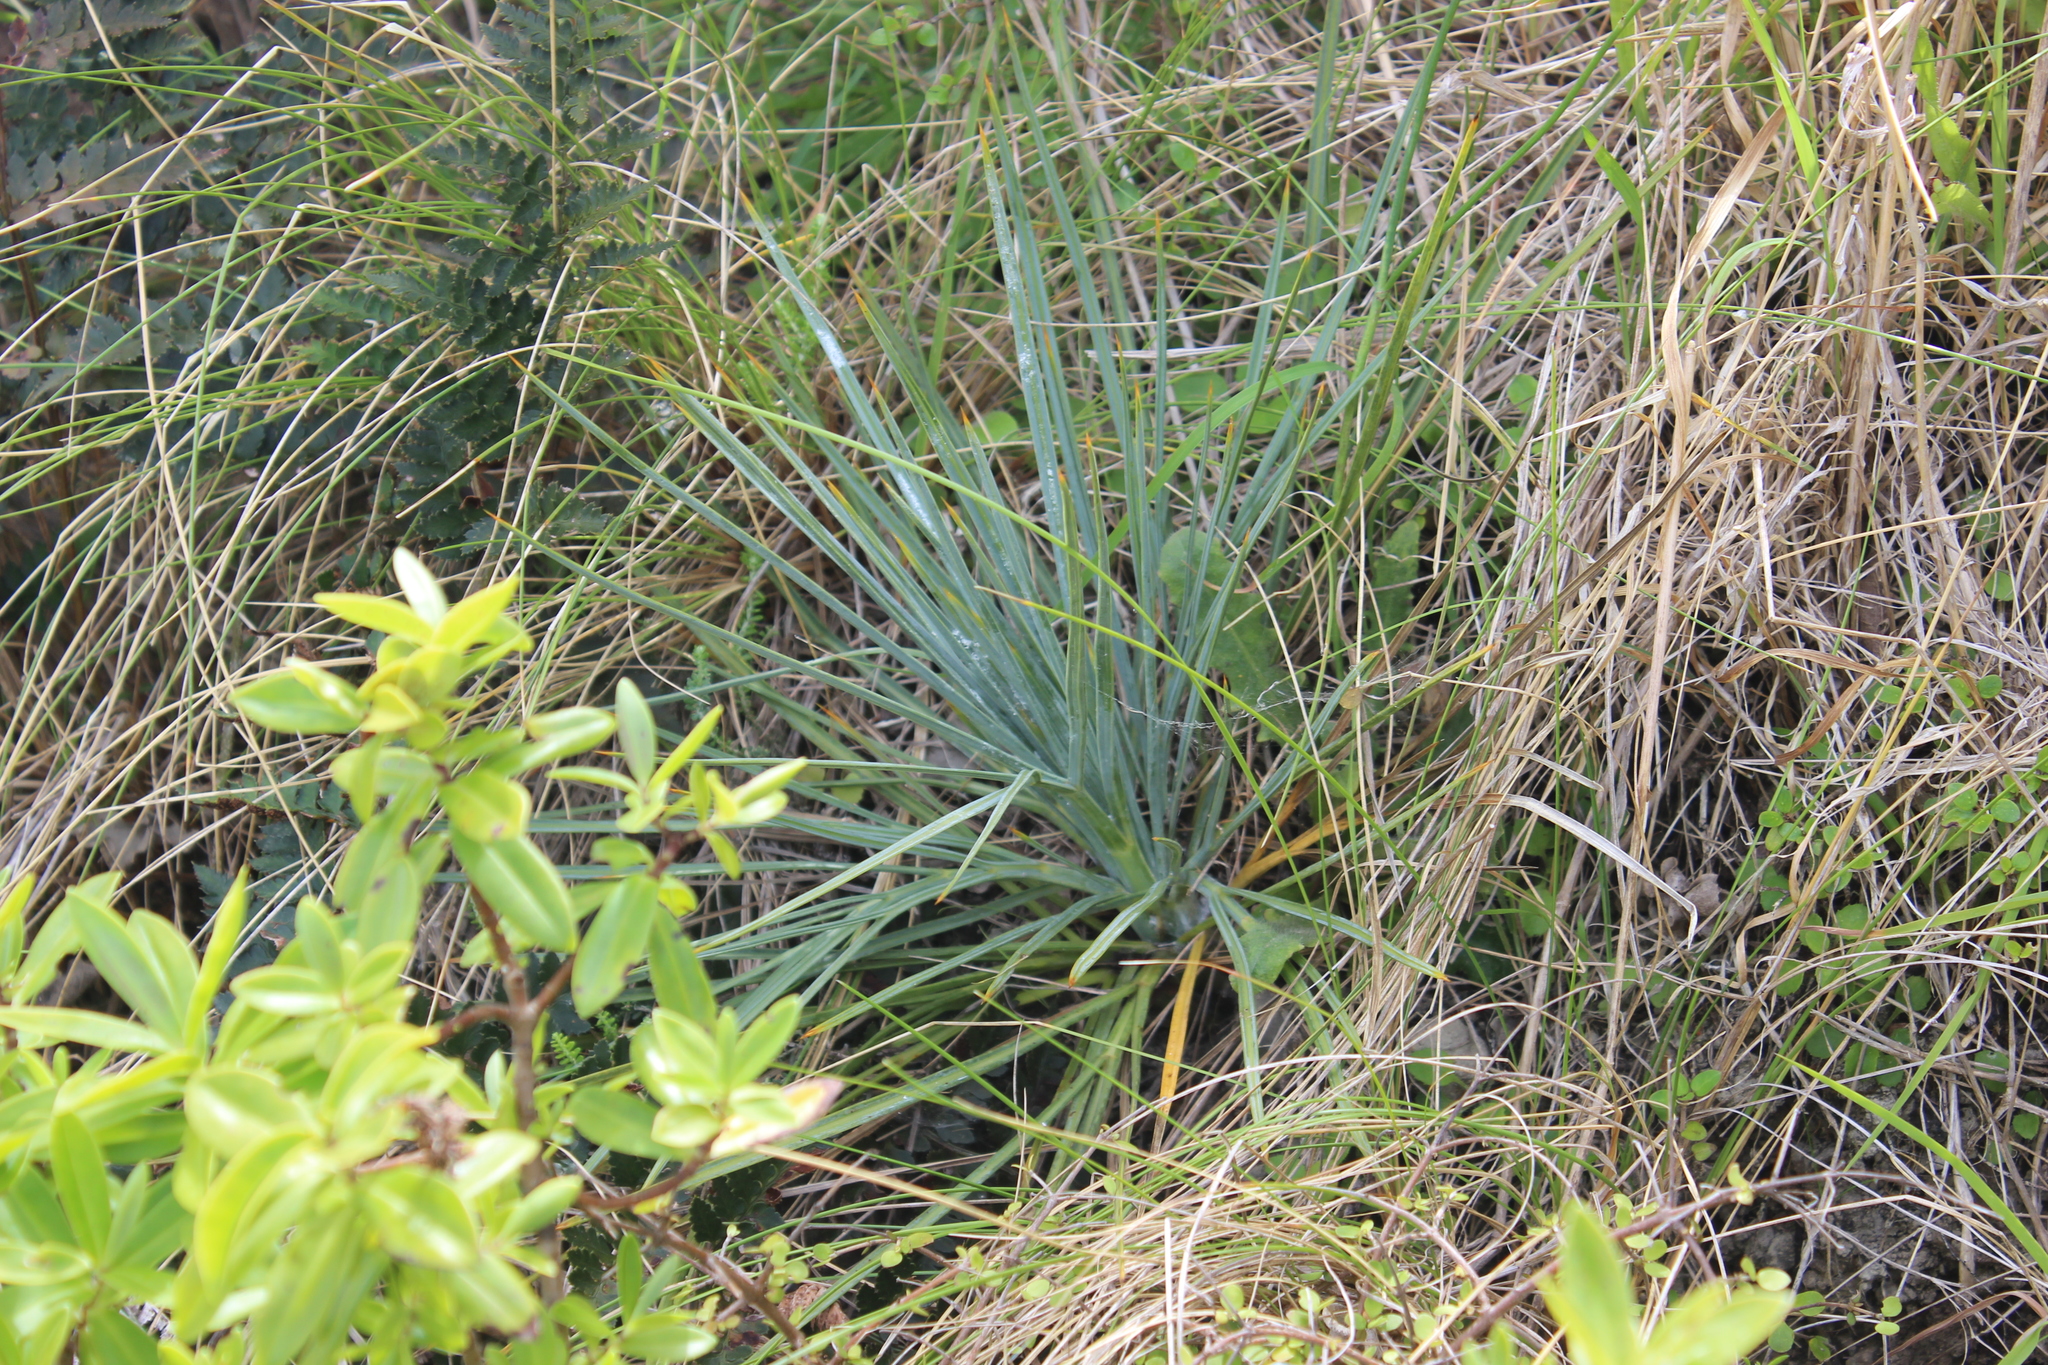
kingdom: Plantae
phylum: Tracheophyta
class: Magnoliopsida
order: Apiales
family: Apiaceae
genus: Aciphylla
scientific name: Aciphylla squarrosa
